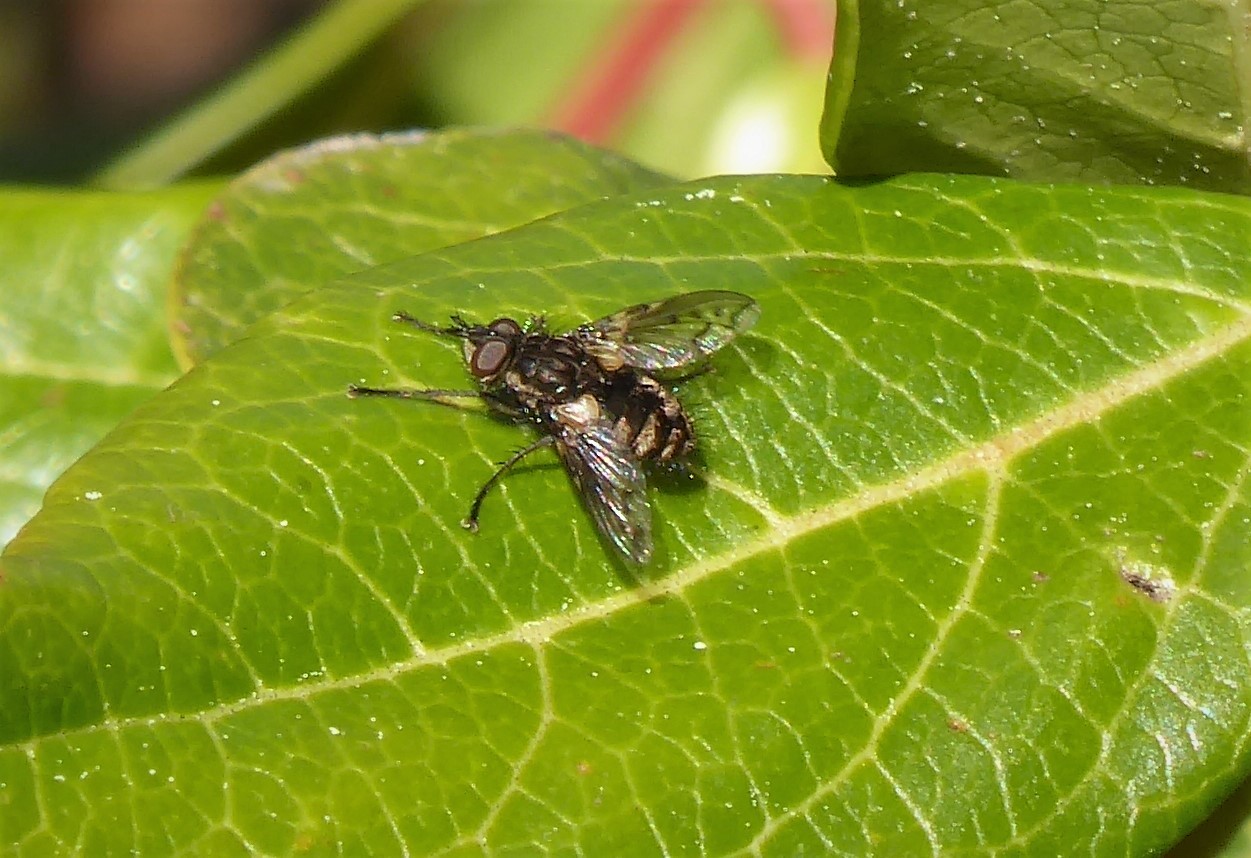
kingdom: Animalia
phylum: Arthropoda
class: Insecta
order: Diptera
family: Tachinidae
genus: Mallochomacquartia
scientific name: Mallochomacquartia vexata
